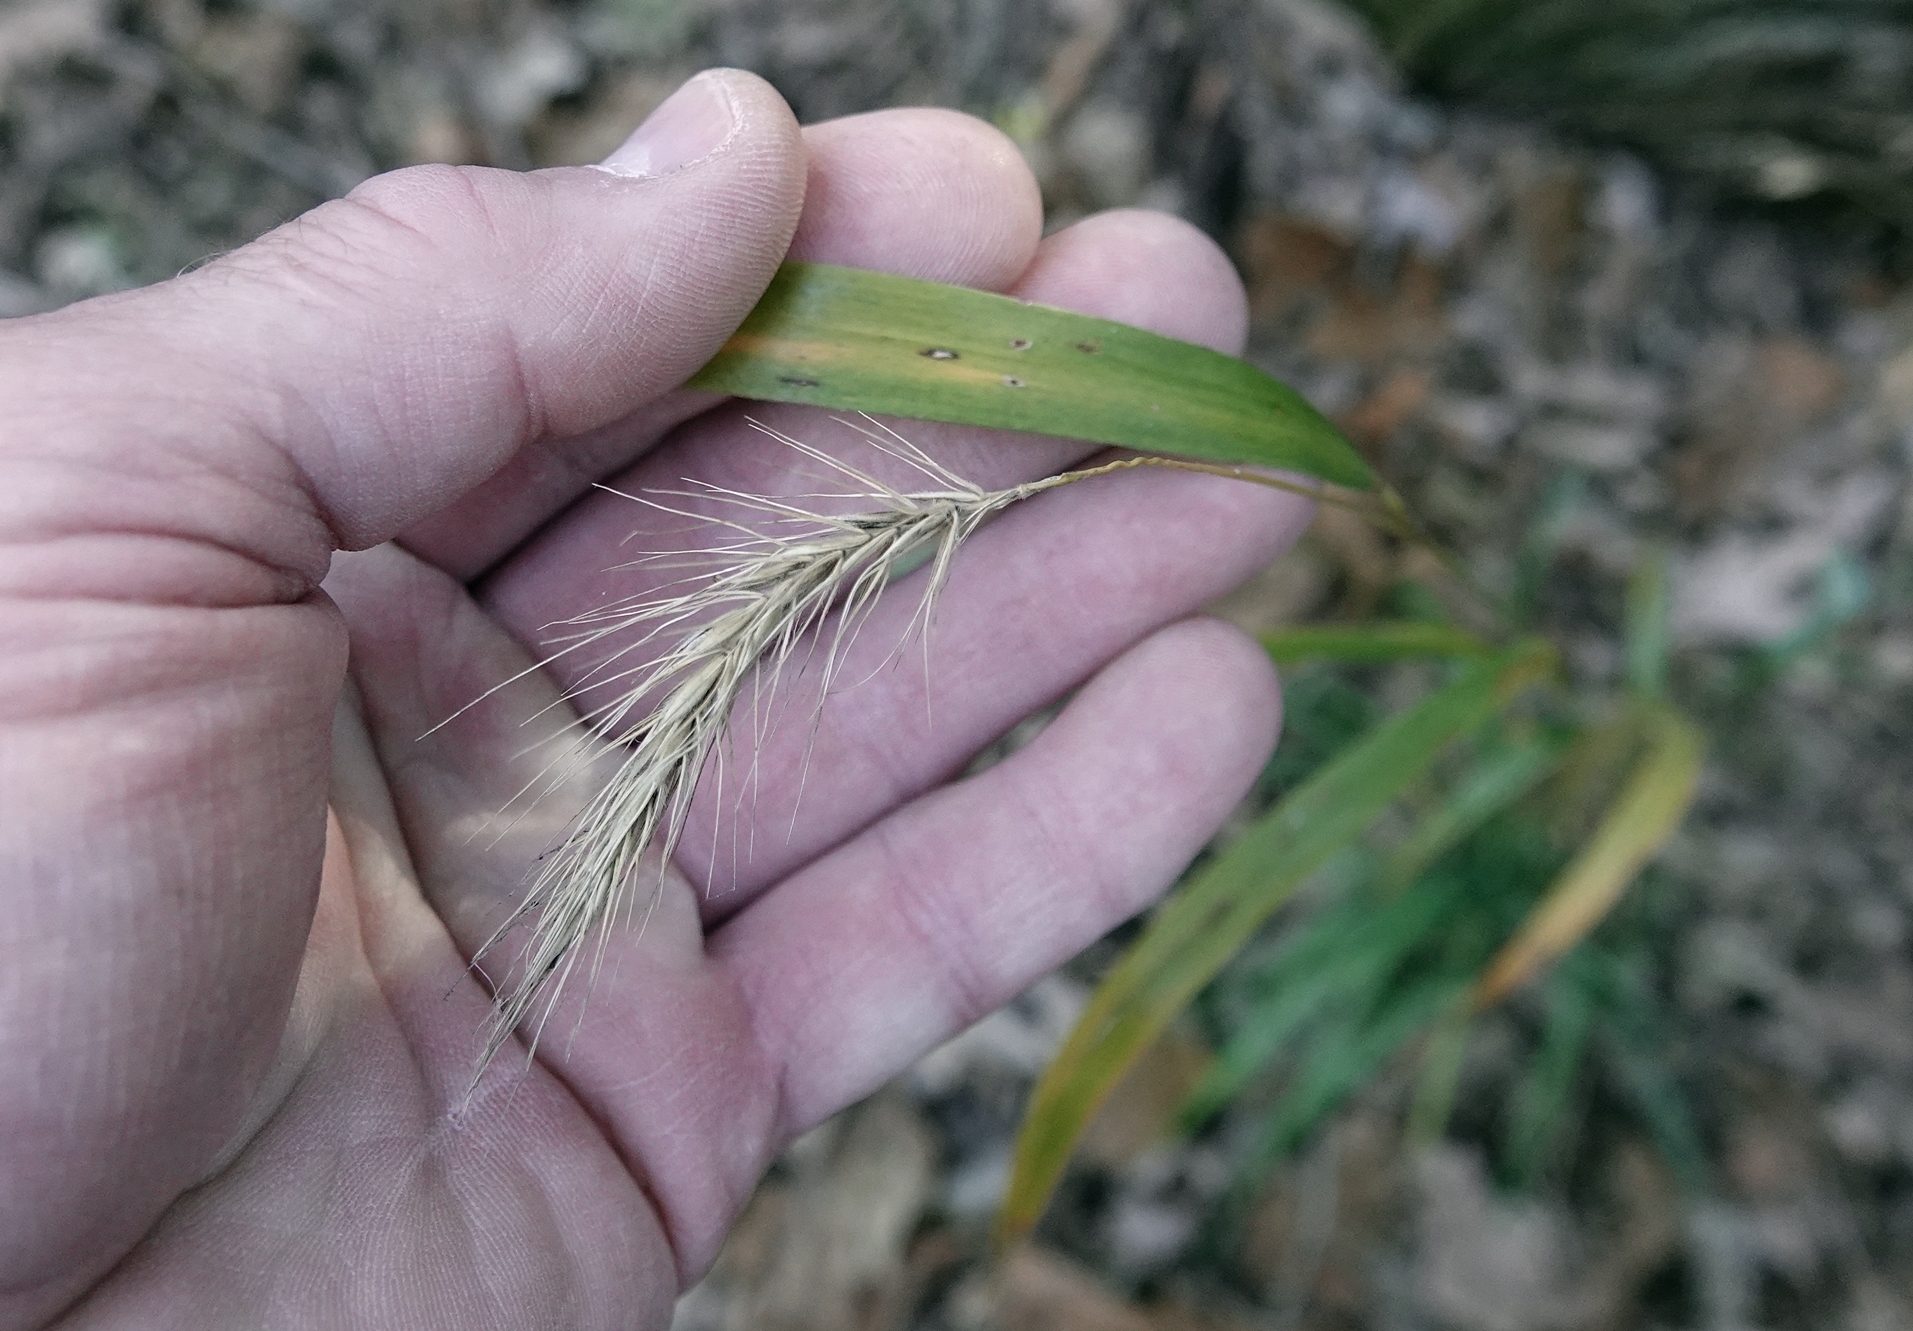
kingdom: Plantae
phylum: Tracheophyta
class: Liliopsida
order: Poales
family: Poaceae
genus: Elymus
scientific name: Elymus villosus
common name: Downy wild rye
